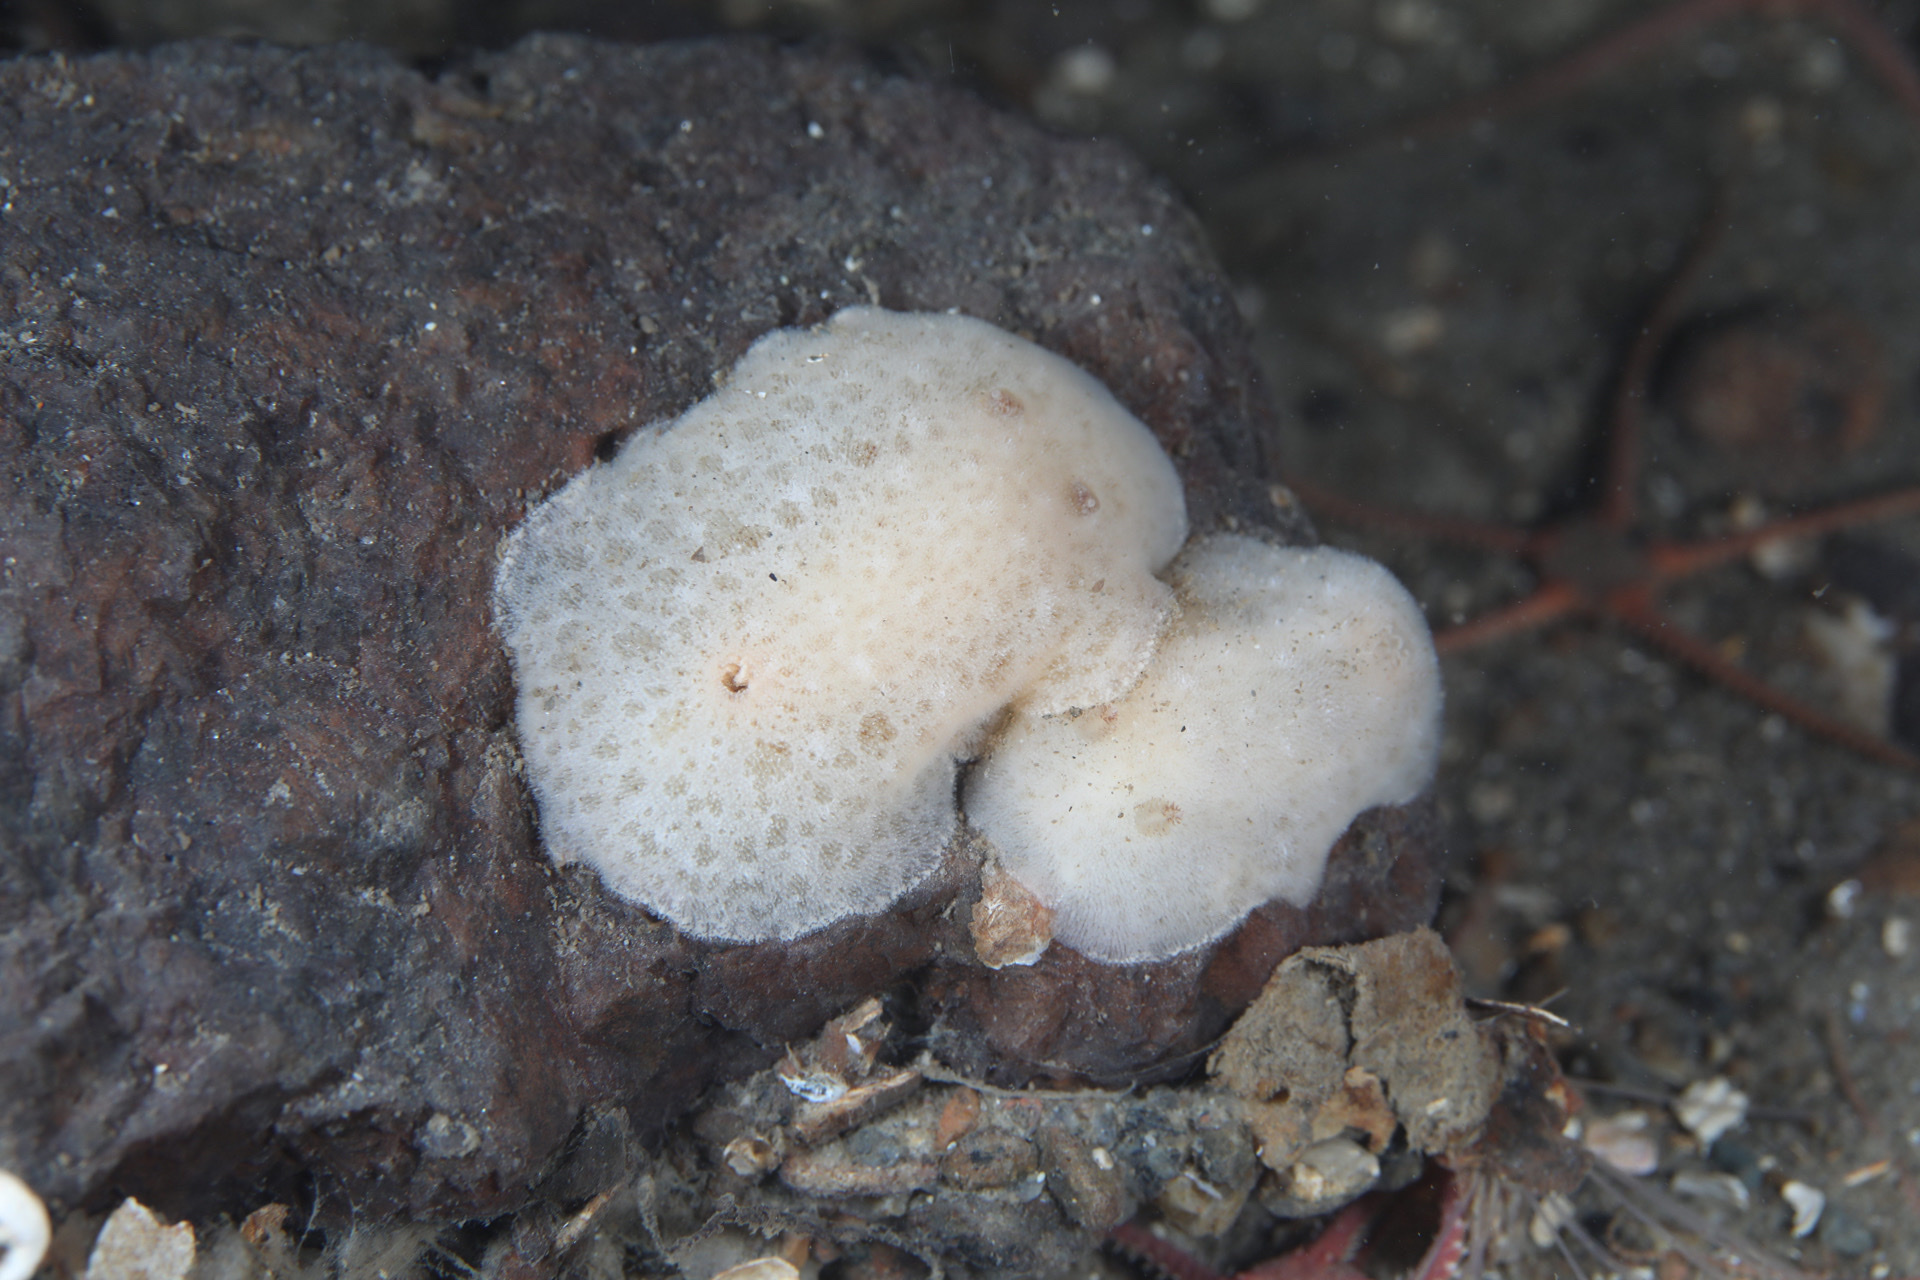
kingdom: Animalia
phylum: Mollusca
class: Gastropoda
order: Nudibranchia
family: Discodorididae
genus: Jorunna
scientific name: Jorunna tomentosa
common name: Grey sea slug
